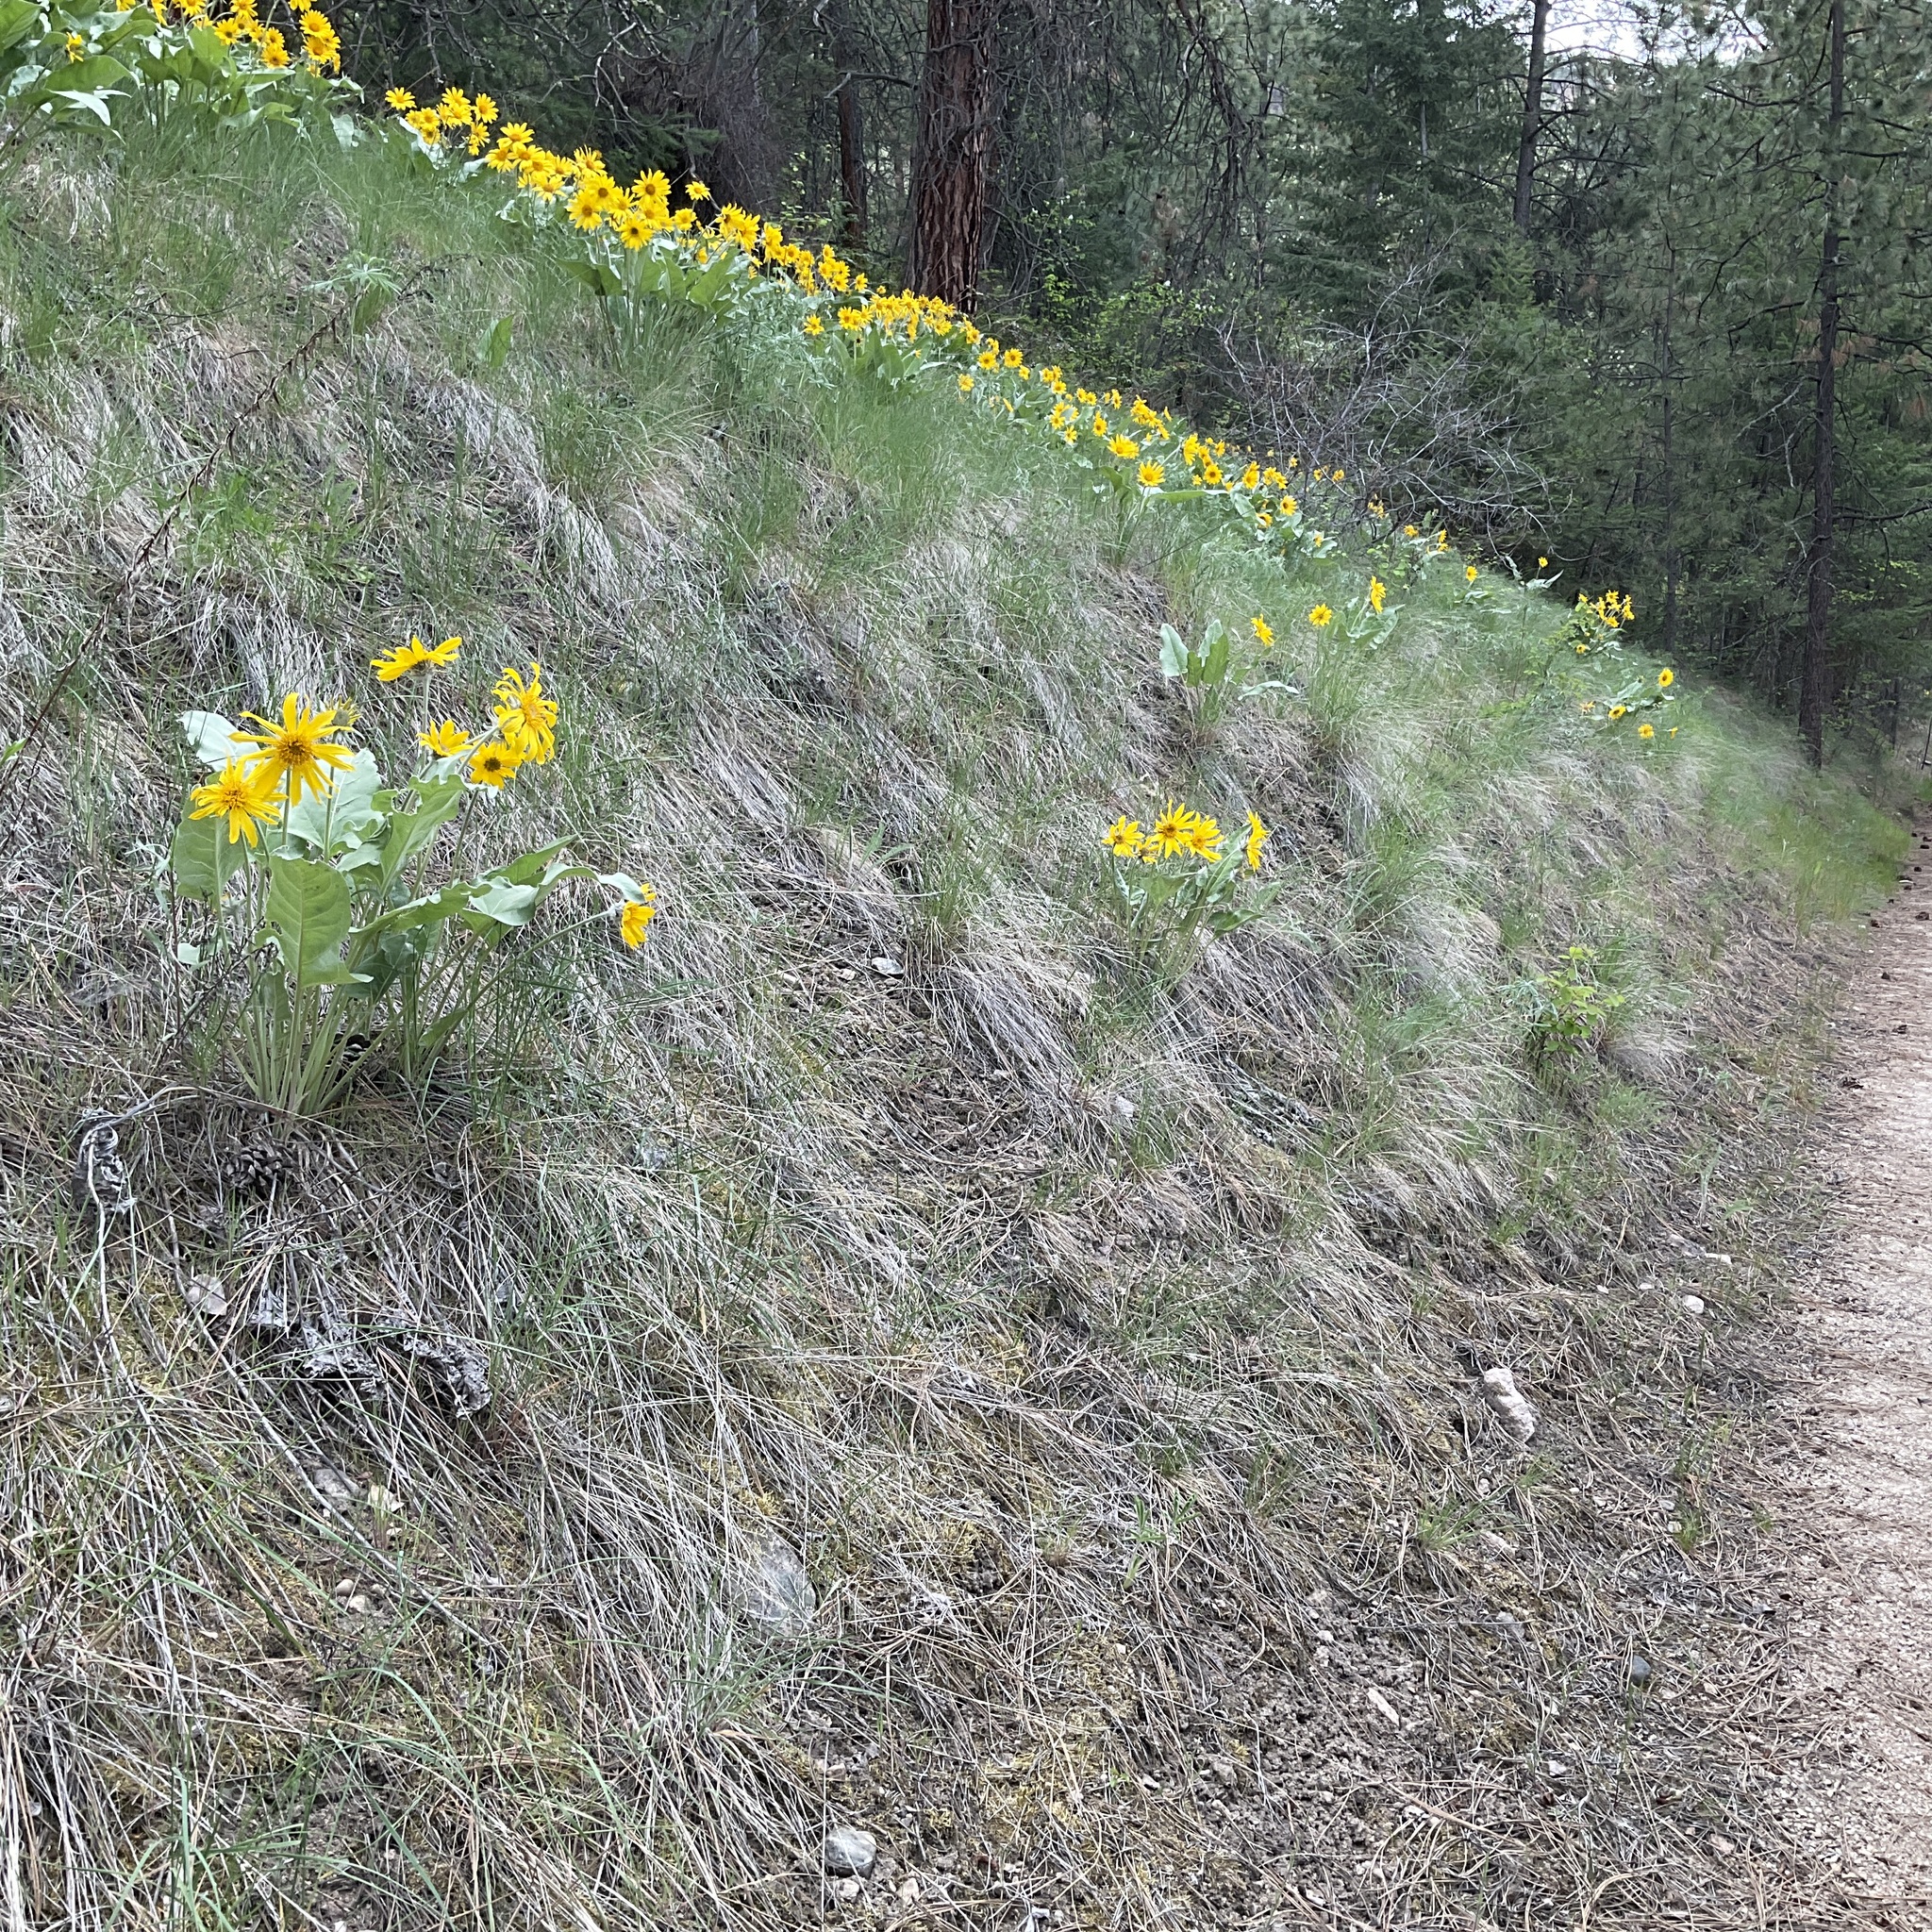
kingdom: Plantae
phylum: Tracheophyta
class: Magnoliopsida
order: Asterales
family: Asteraceae
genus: Wyethia
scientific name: Wyethia sagittata
